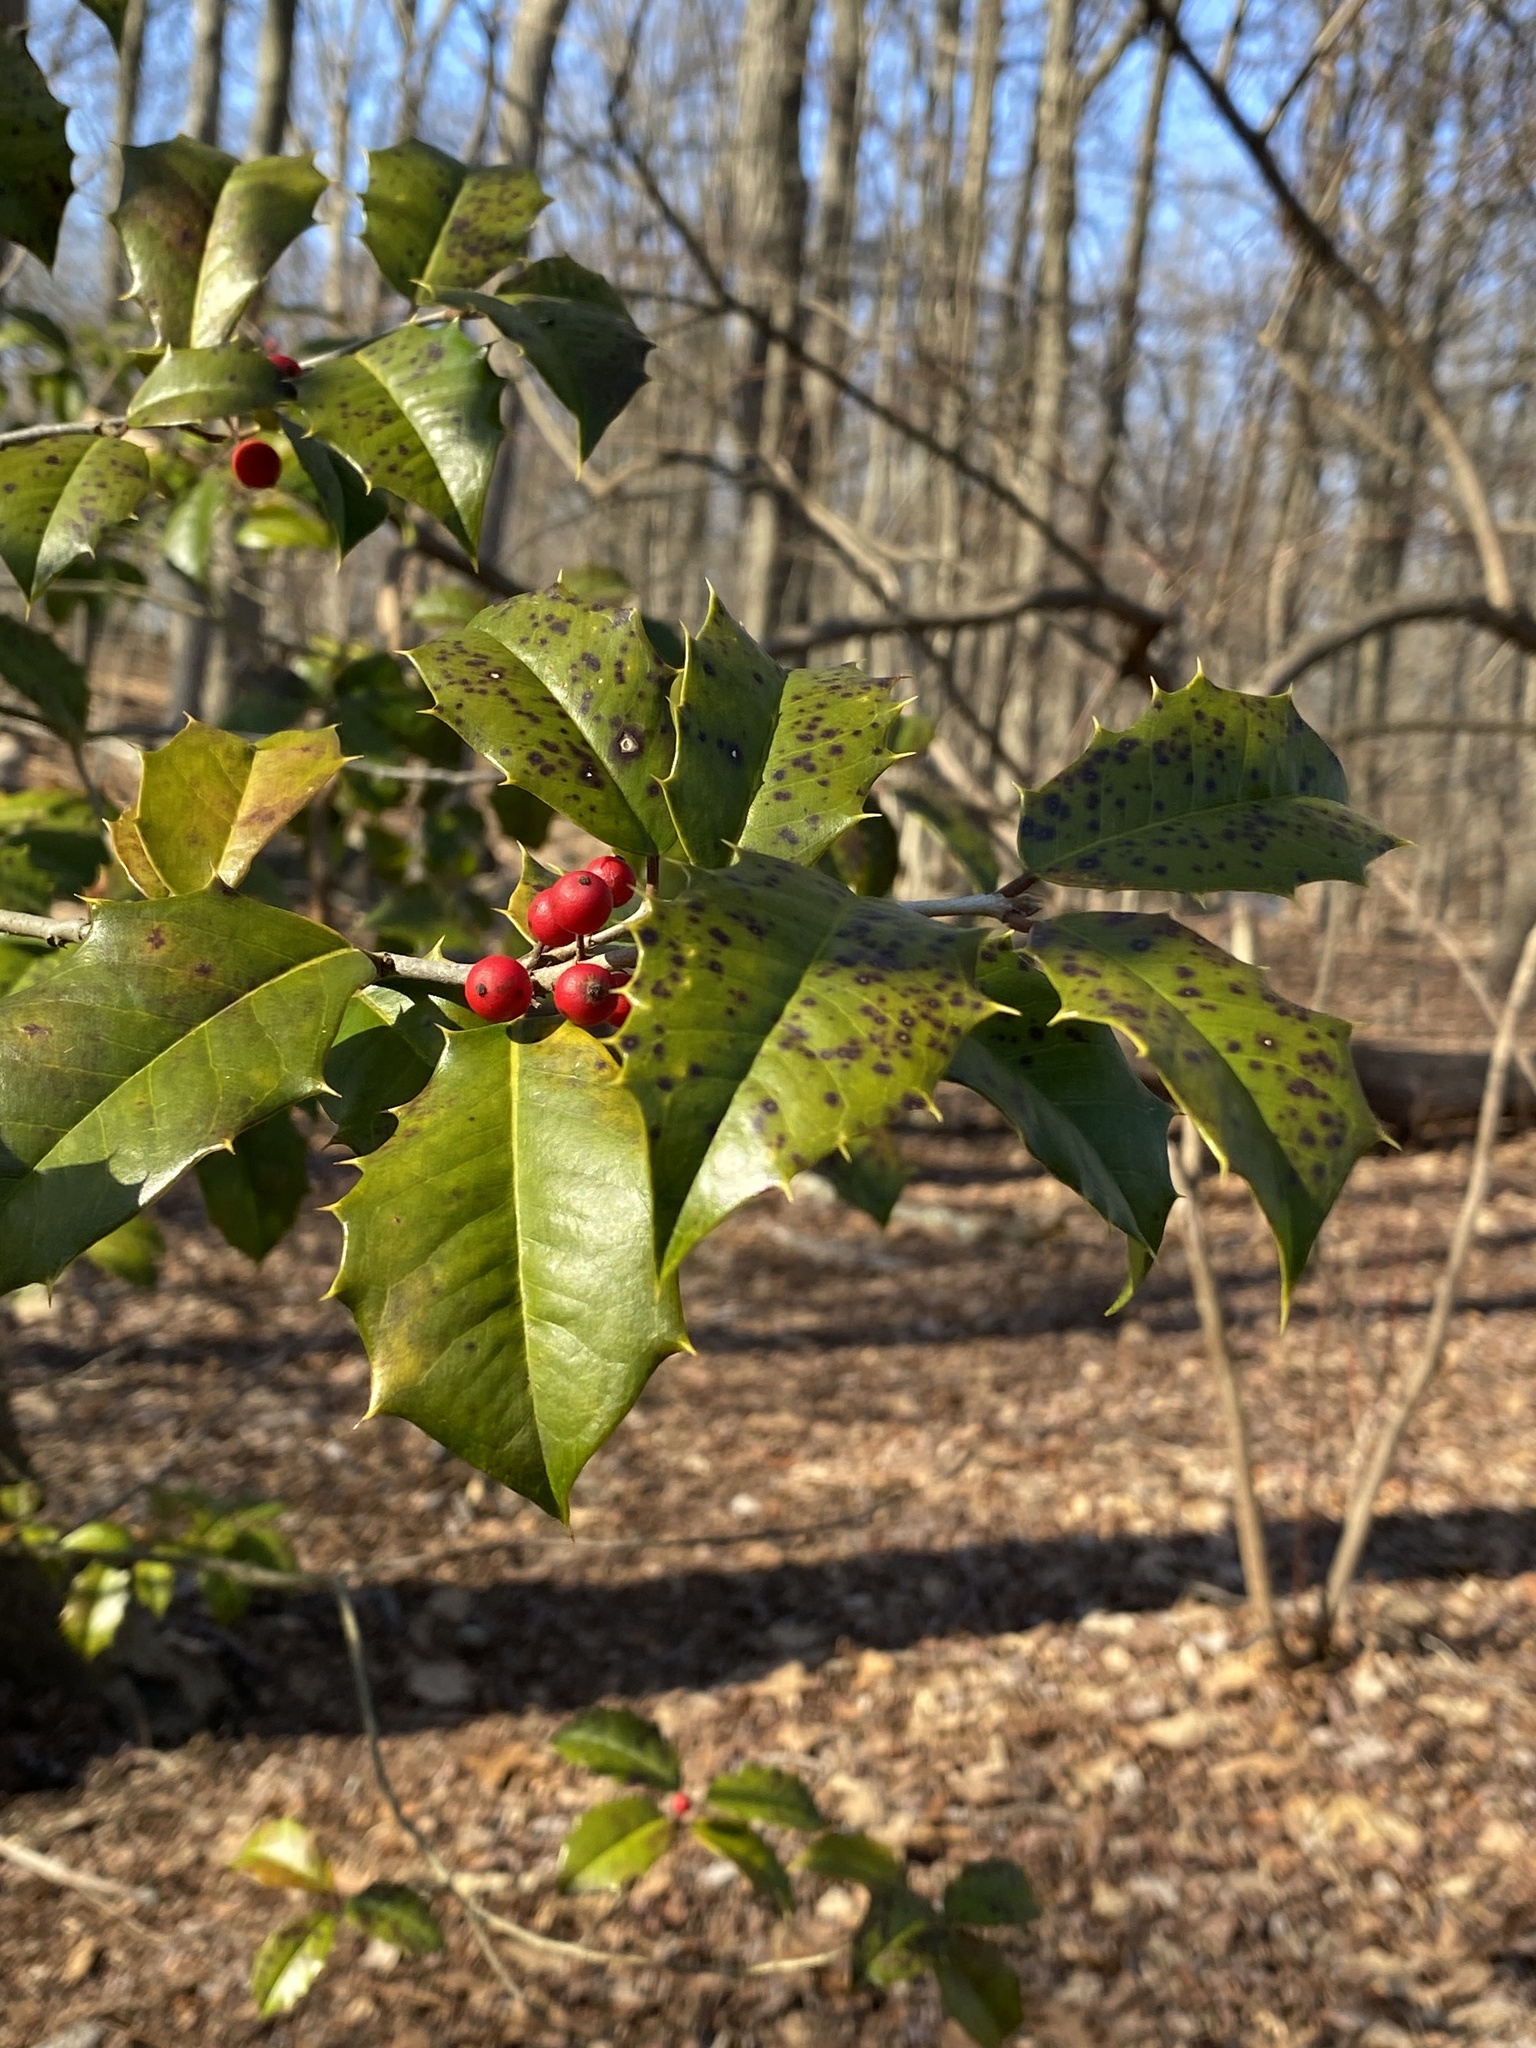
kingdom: Plantae
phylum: Tracheophyta
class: Magnoliopsida
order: Aquifoliales
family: Aquifoliaceae
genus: Ilex
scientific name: Ilex opaca
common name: American holly
